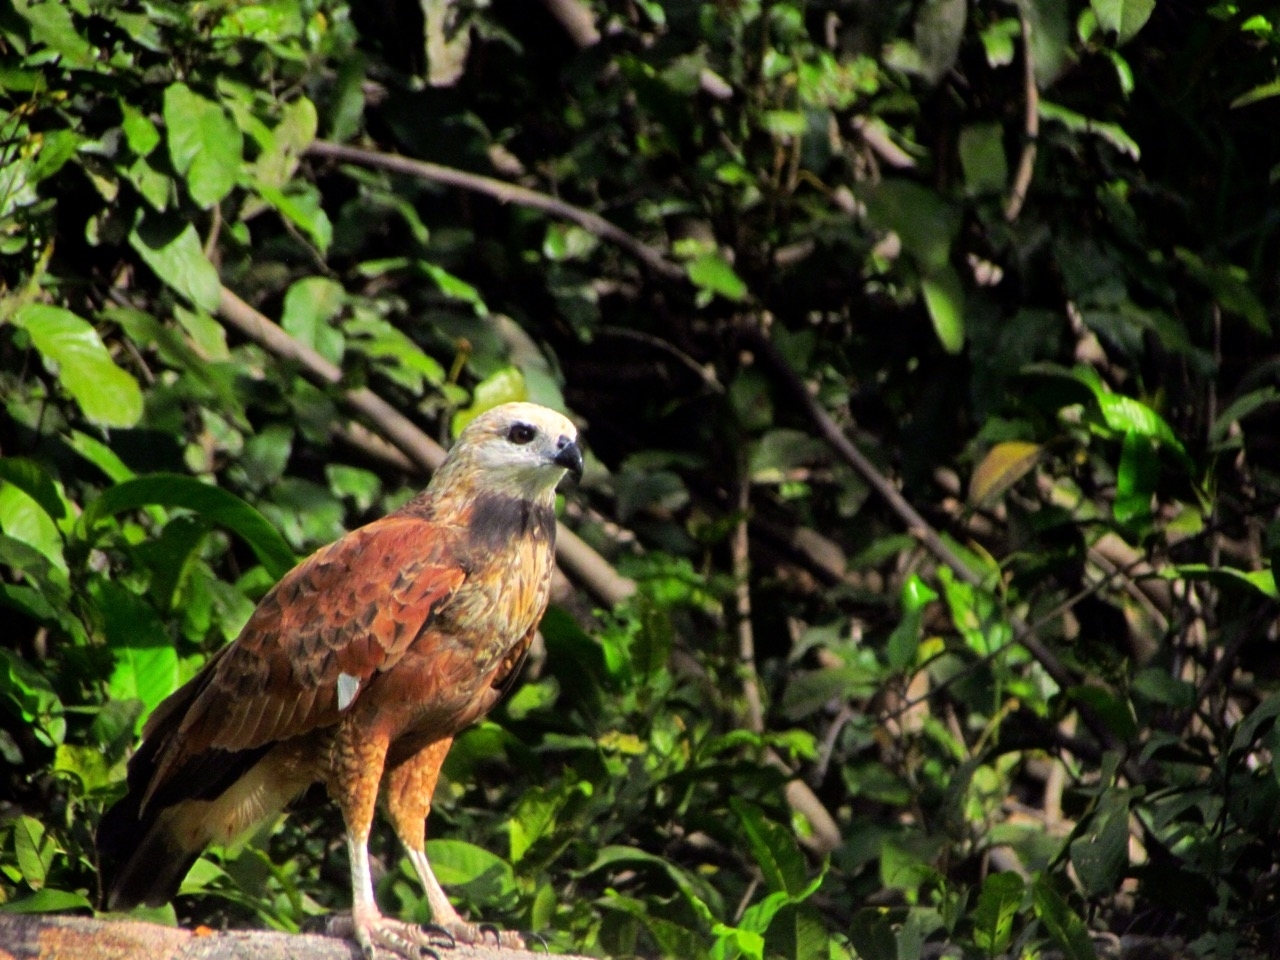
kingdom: Animalia
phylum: Chordata
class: Aves
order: Accipitriformes
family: Accipitridae
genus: Busarellus
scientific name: Busarellus nigricollis
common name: Black-collared hawk
